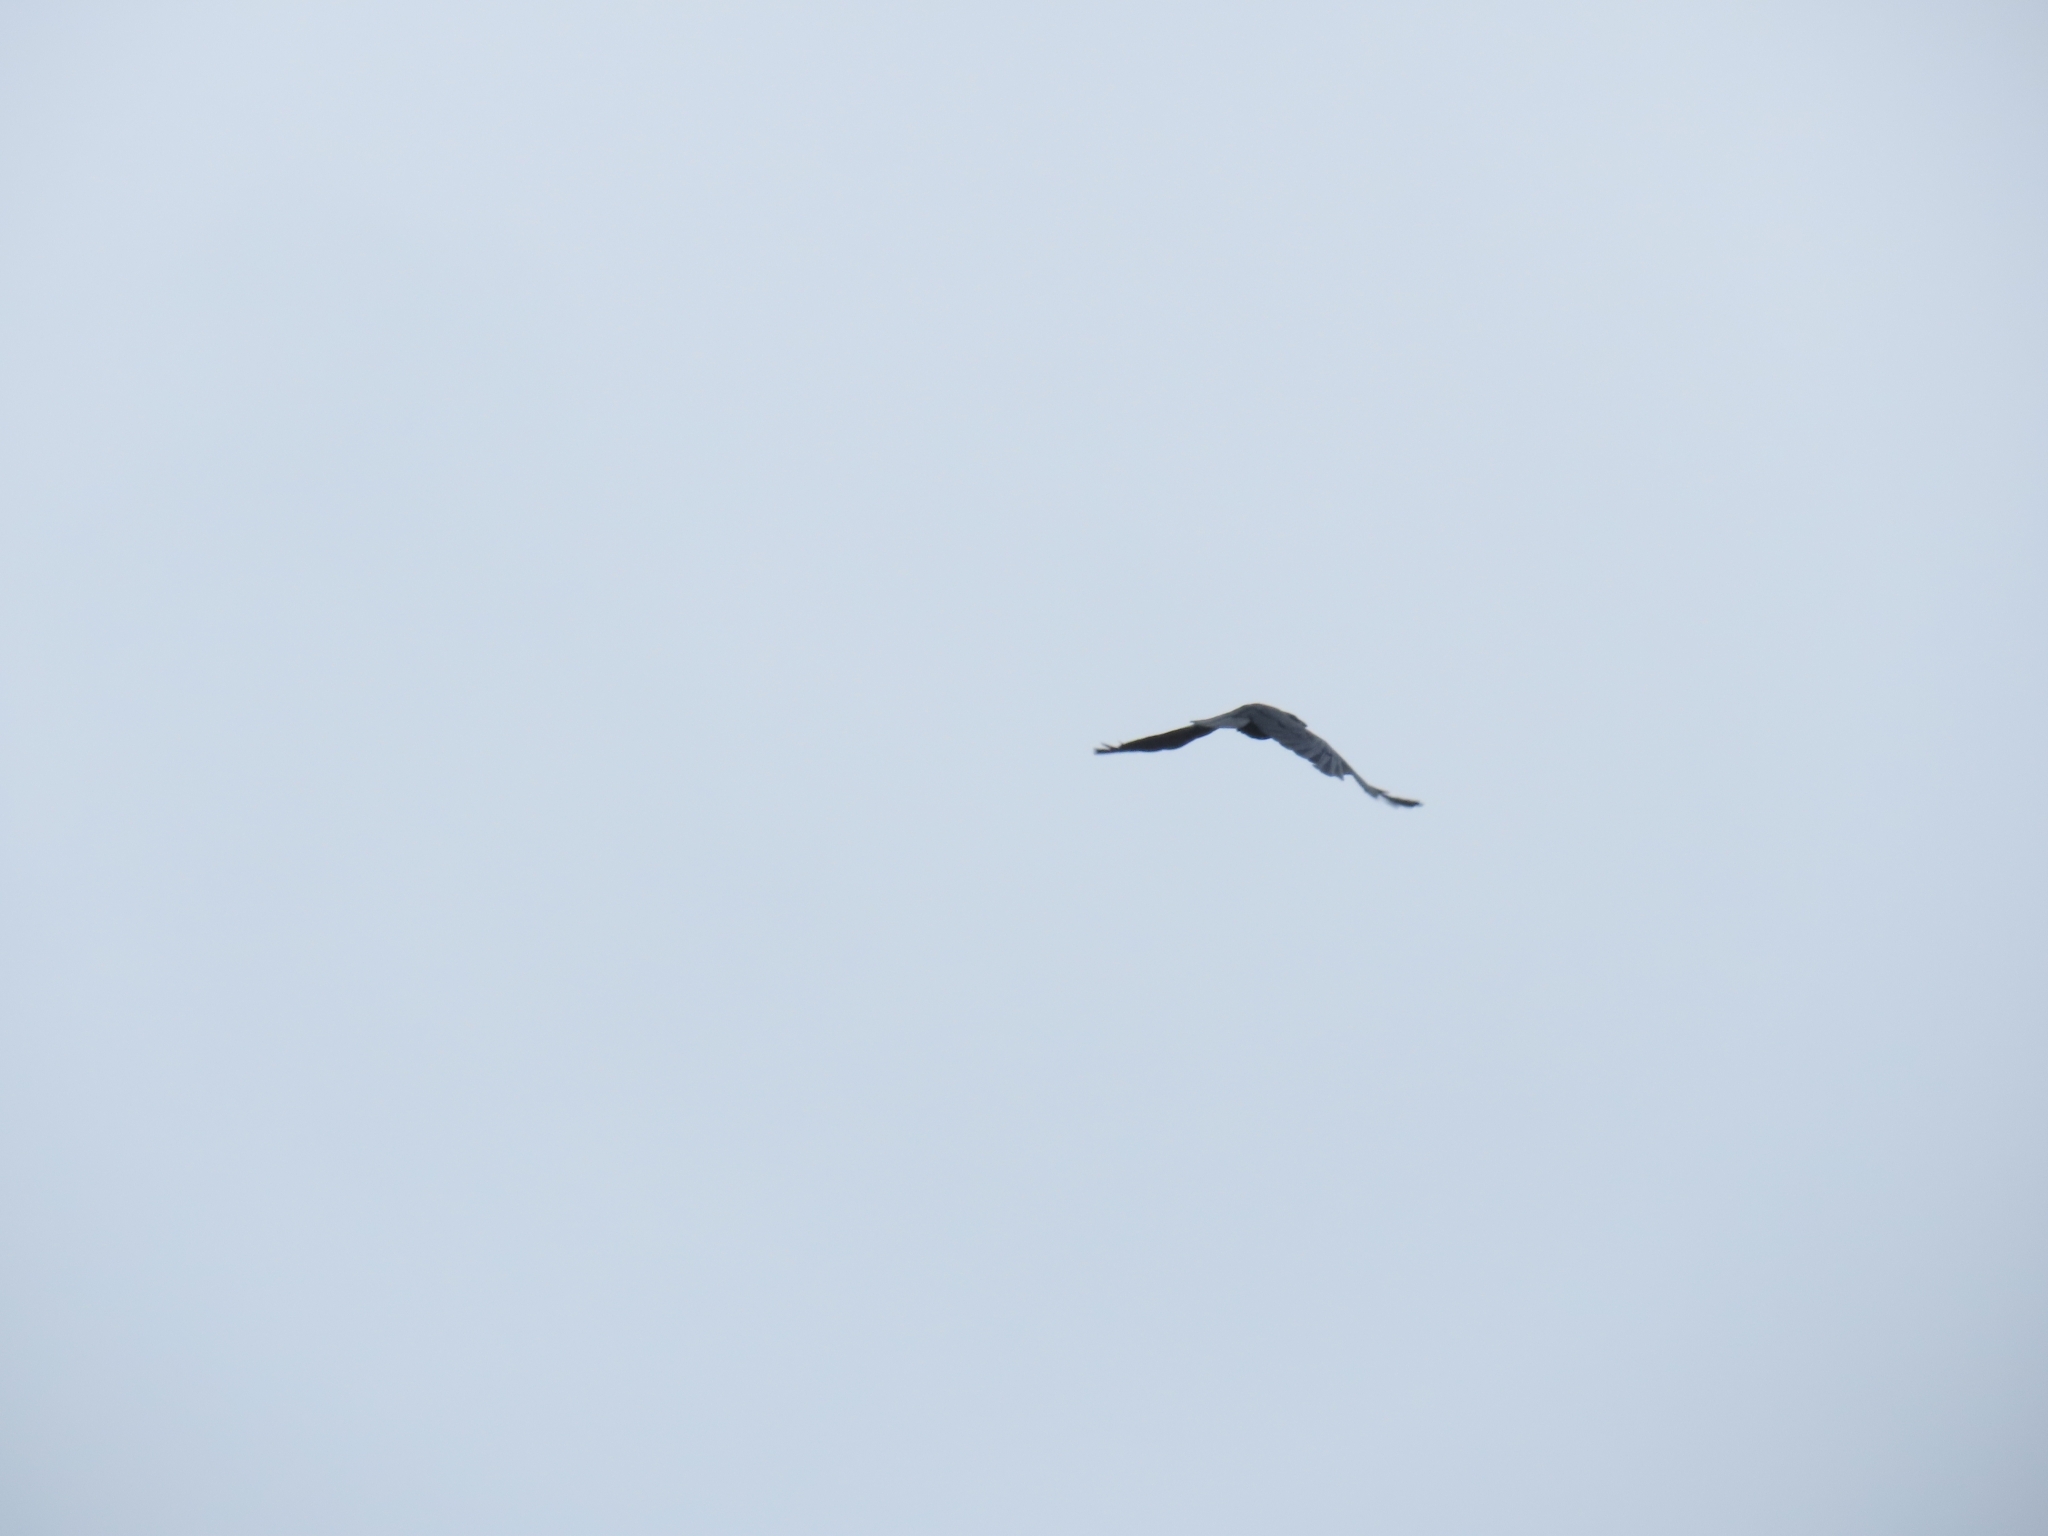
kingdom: Animalia
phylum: Chordata
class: Aves
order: Passeriformes
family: Corvidae
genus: Corvus
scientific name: Corvus ossifragus
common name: Fish crow
